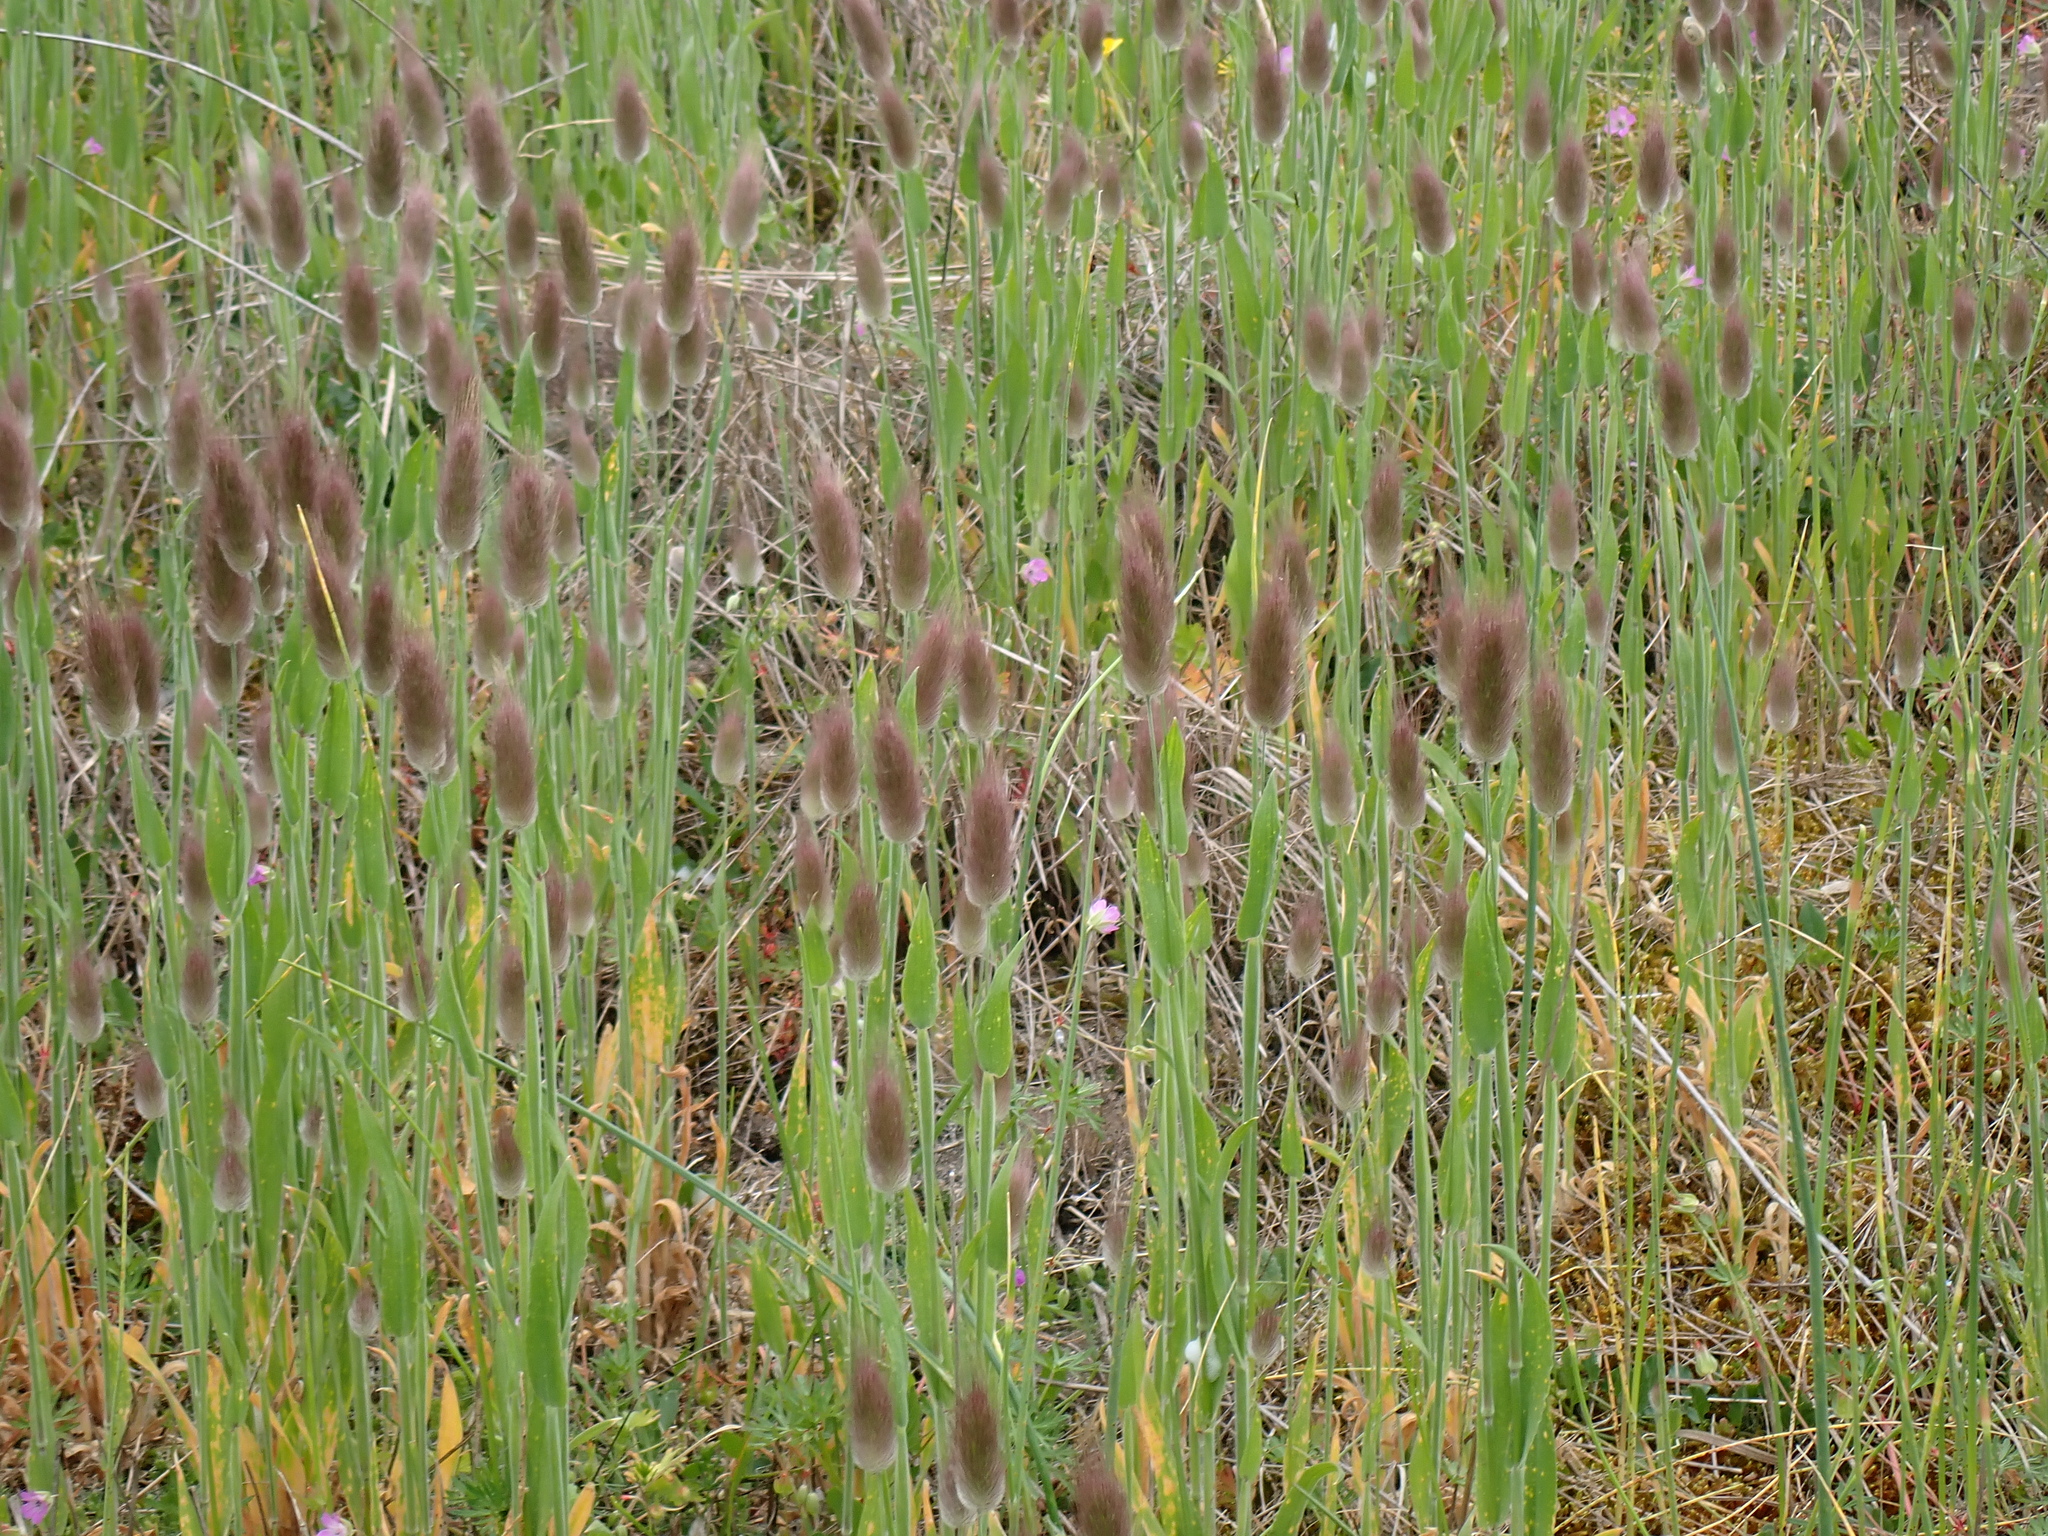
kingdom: Plantae
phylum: Tracheophyta
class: Liliopsida
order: Poales
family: Poaceae
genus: Lagurus
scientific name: Lagurus ovatus
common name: Hare's-tail
